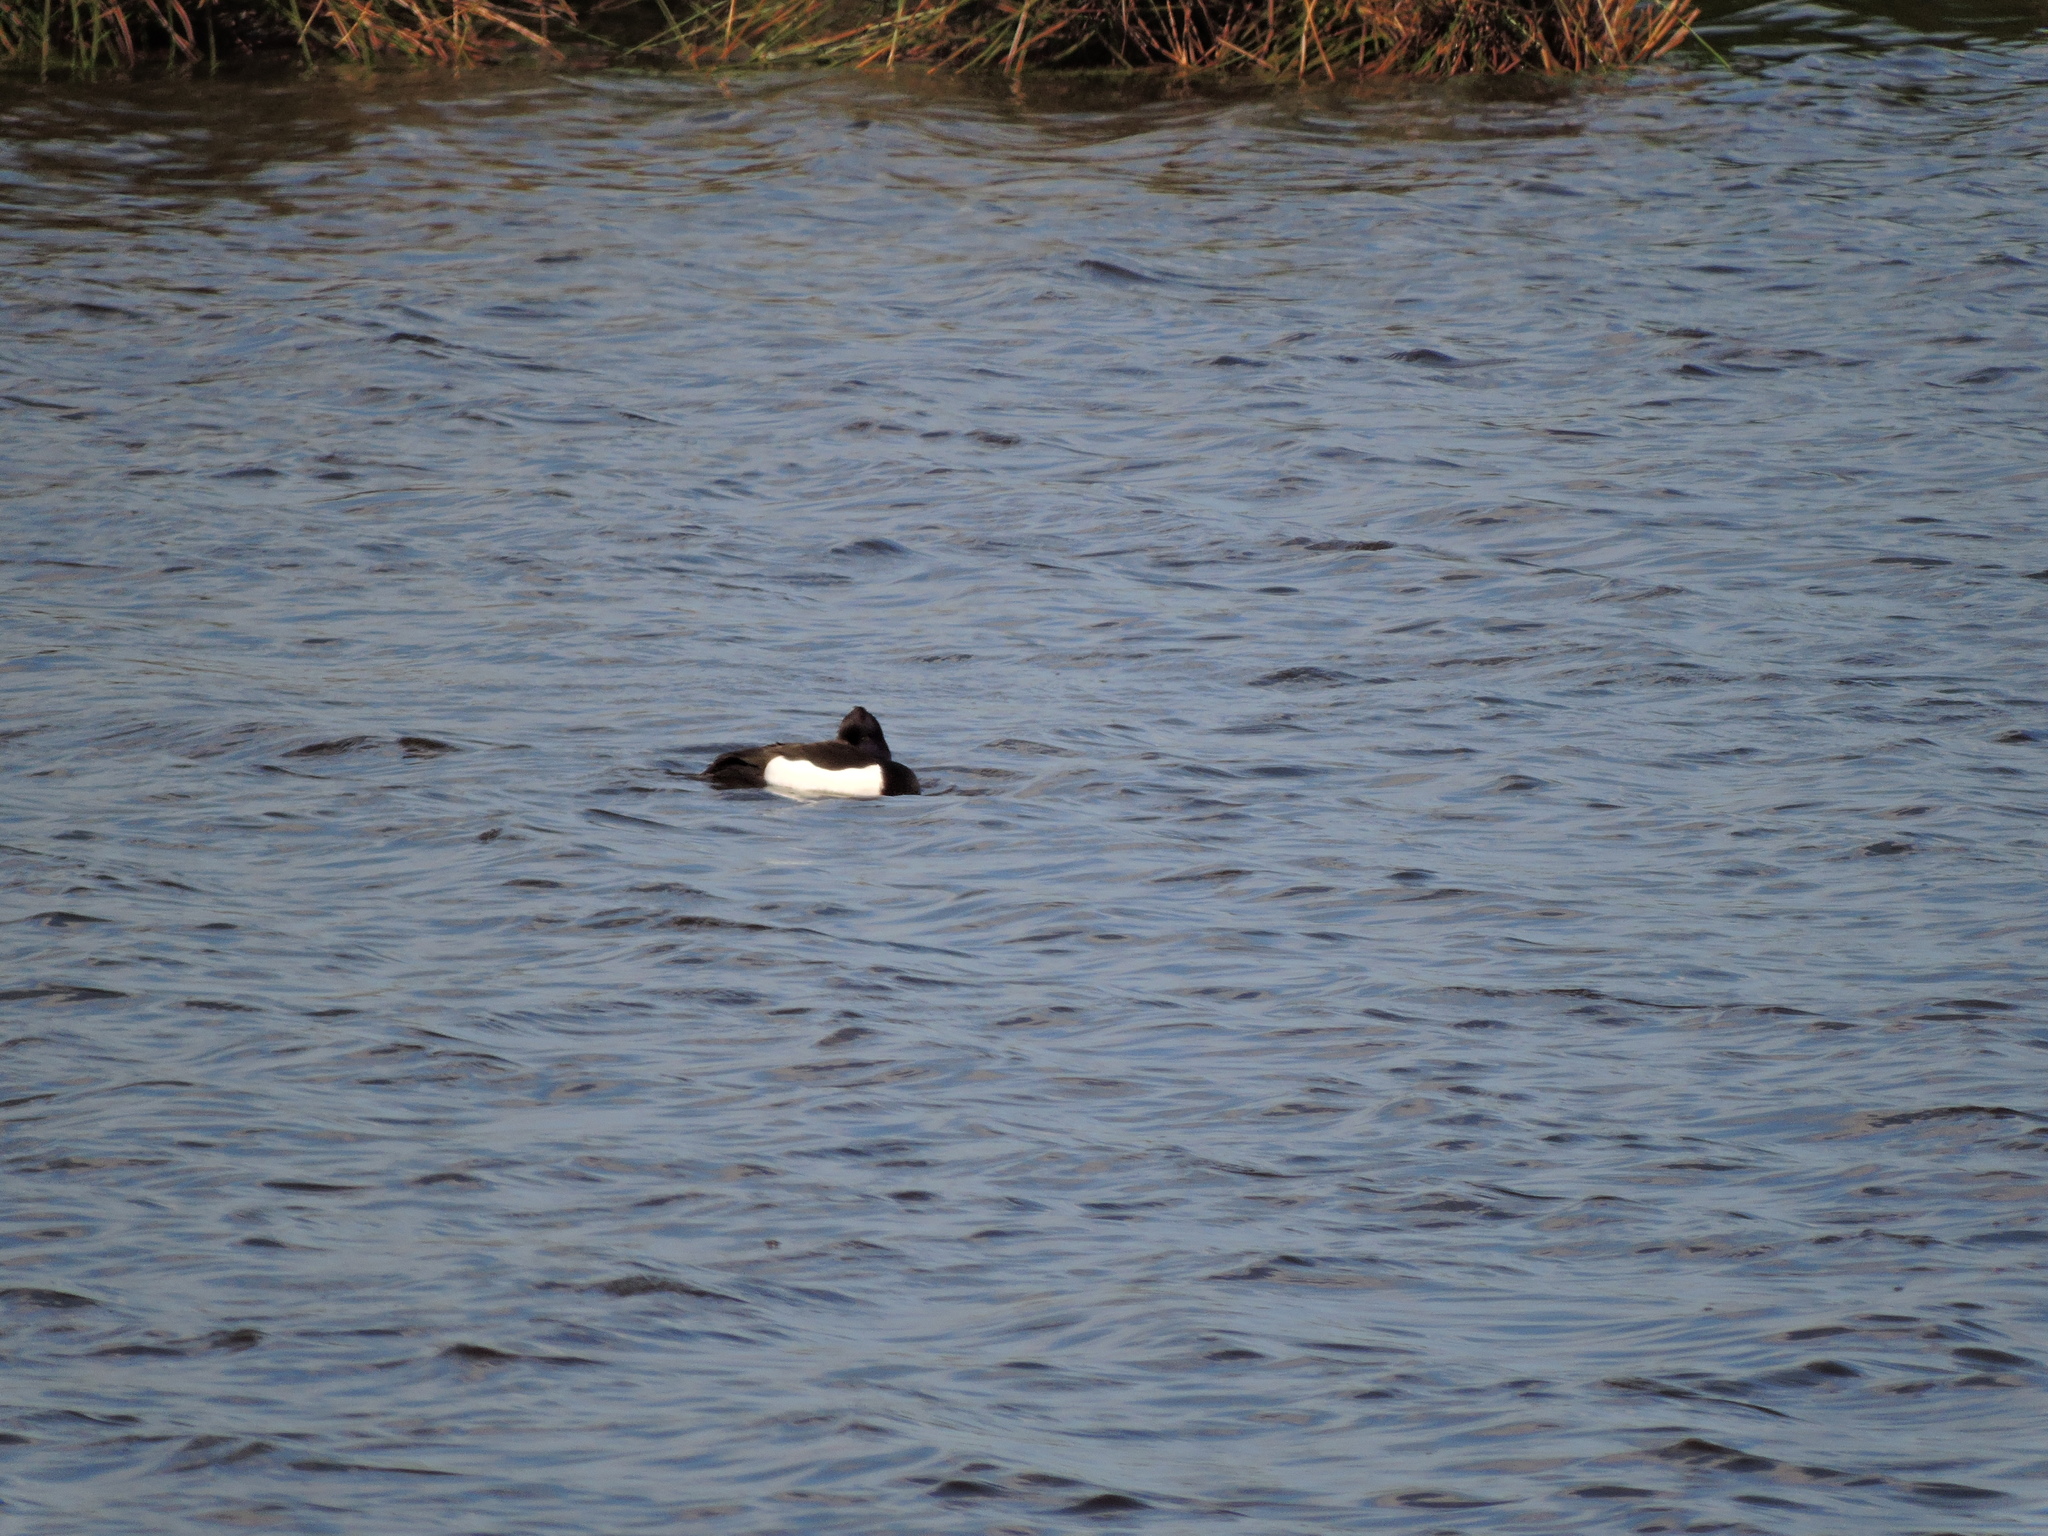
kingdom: Animalia
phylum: Chordata
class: Aves
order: Anseriformes
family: Anatidae
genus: Aythya
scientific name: Aythya fuligula
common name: Tufted duck
